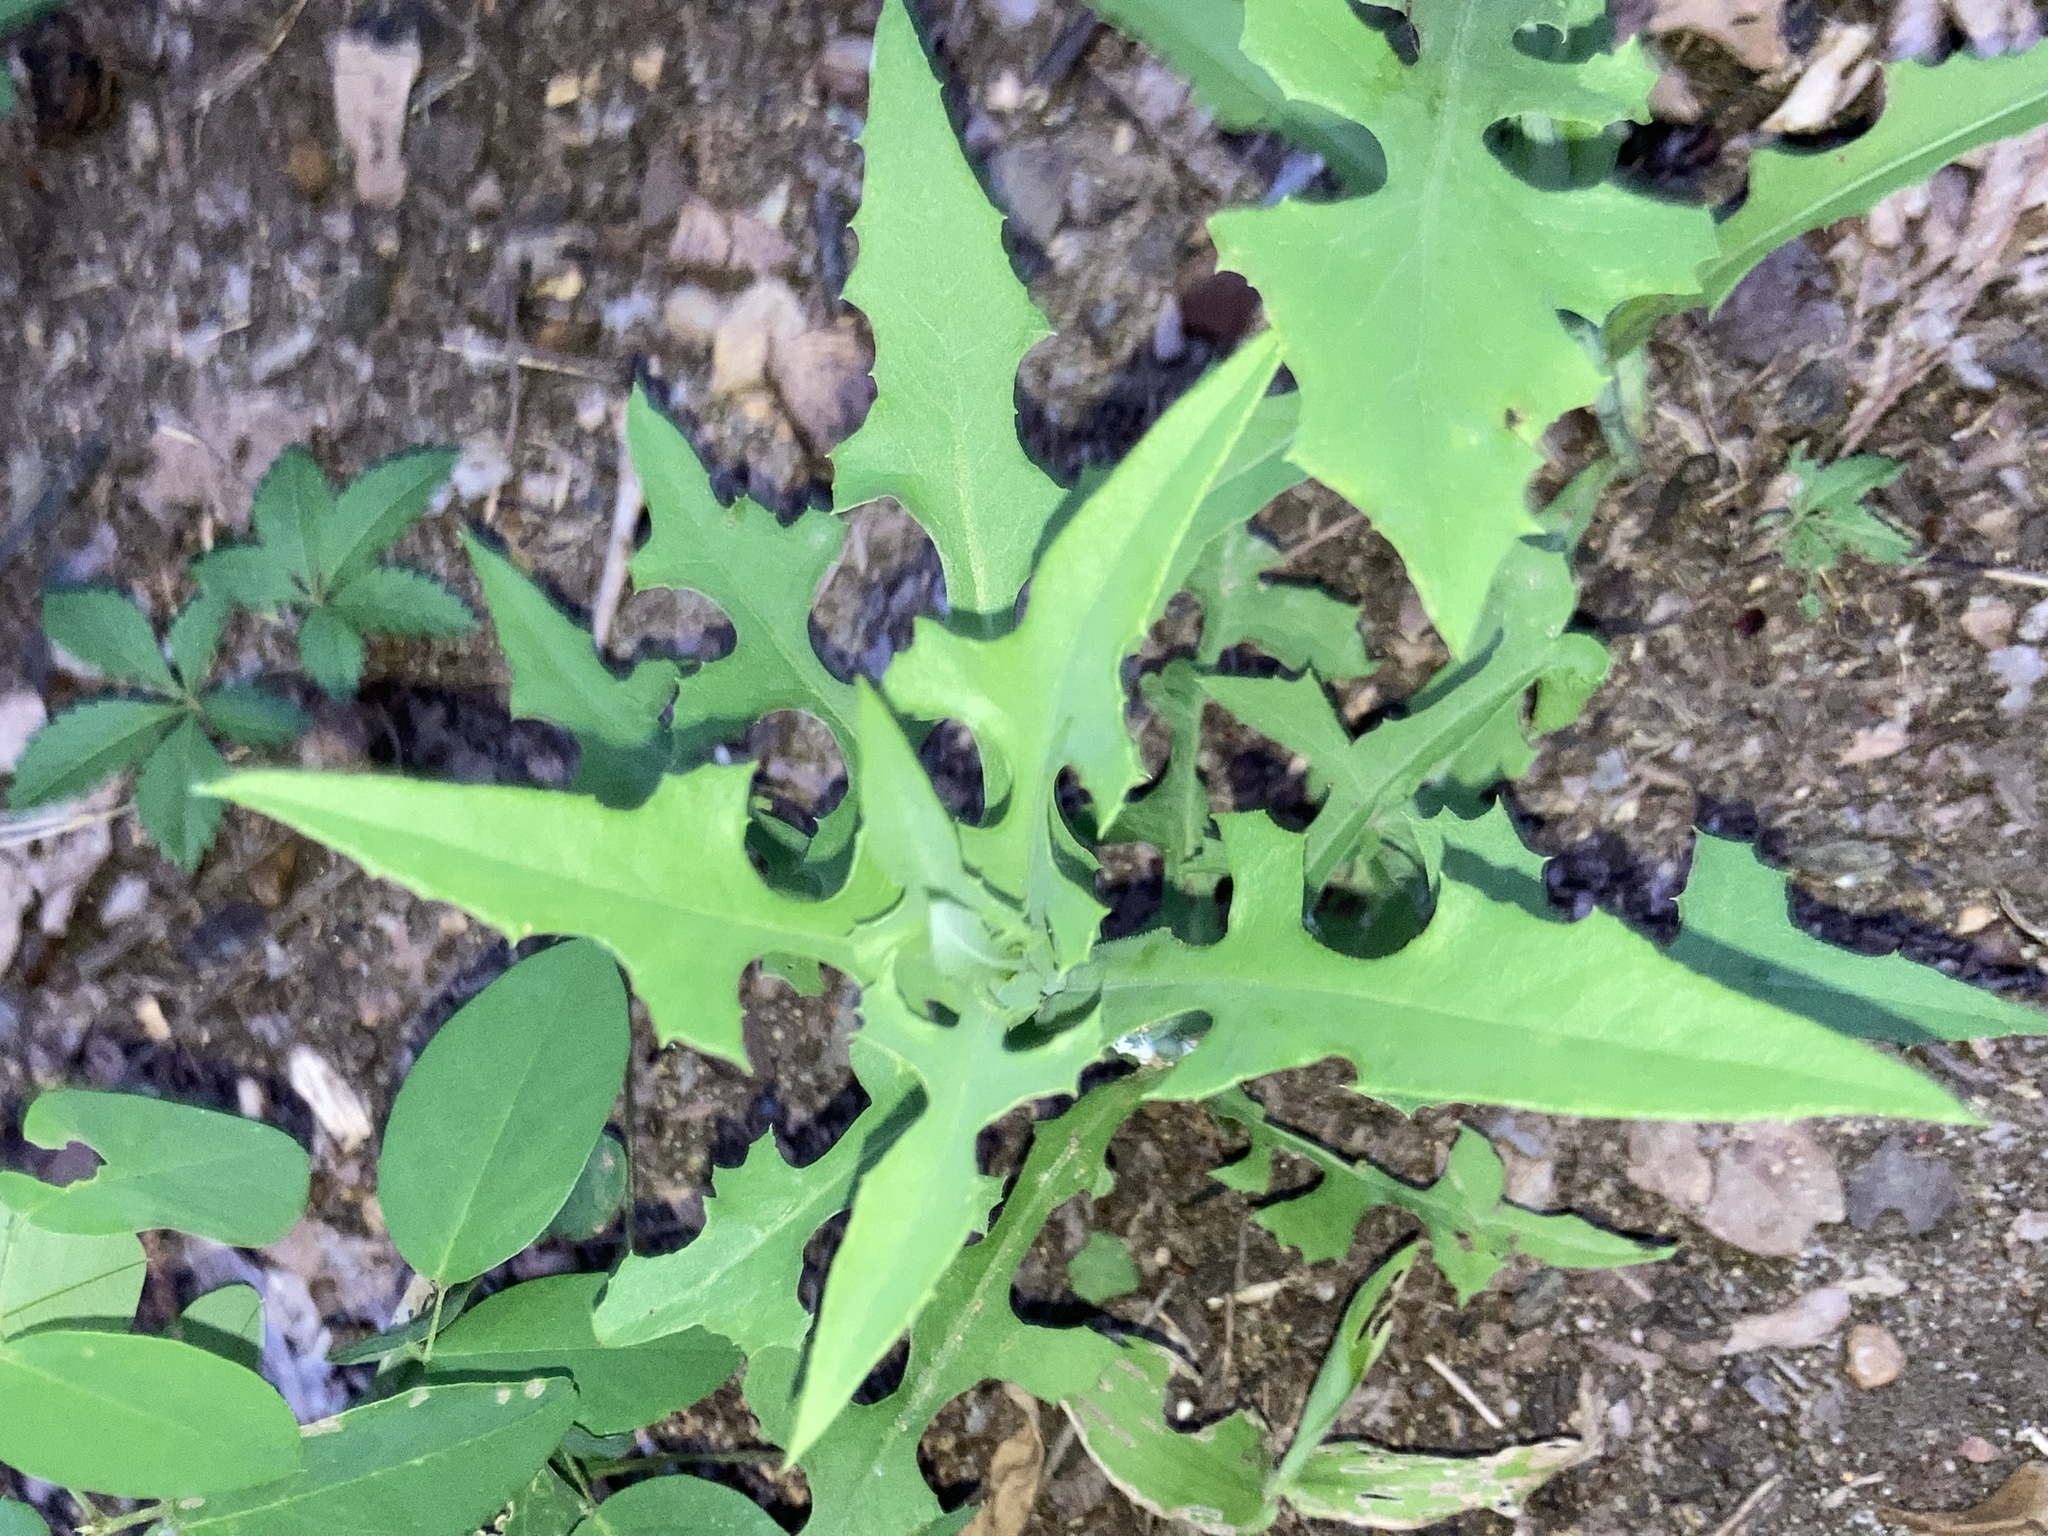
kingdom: Plantae
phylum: Tracheophyta
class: Magnoliopsida
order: Asterales
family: Asteraceae
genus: Lactuca
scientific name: Lactuca canadensis
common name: Canada lettuce
